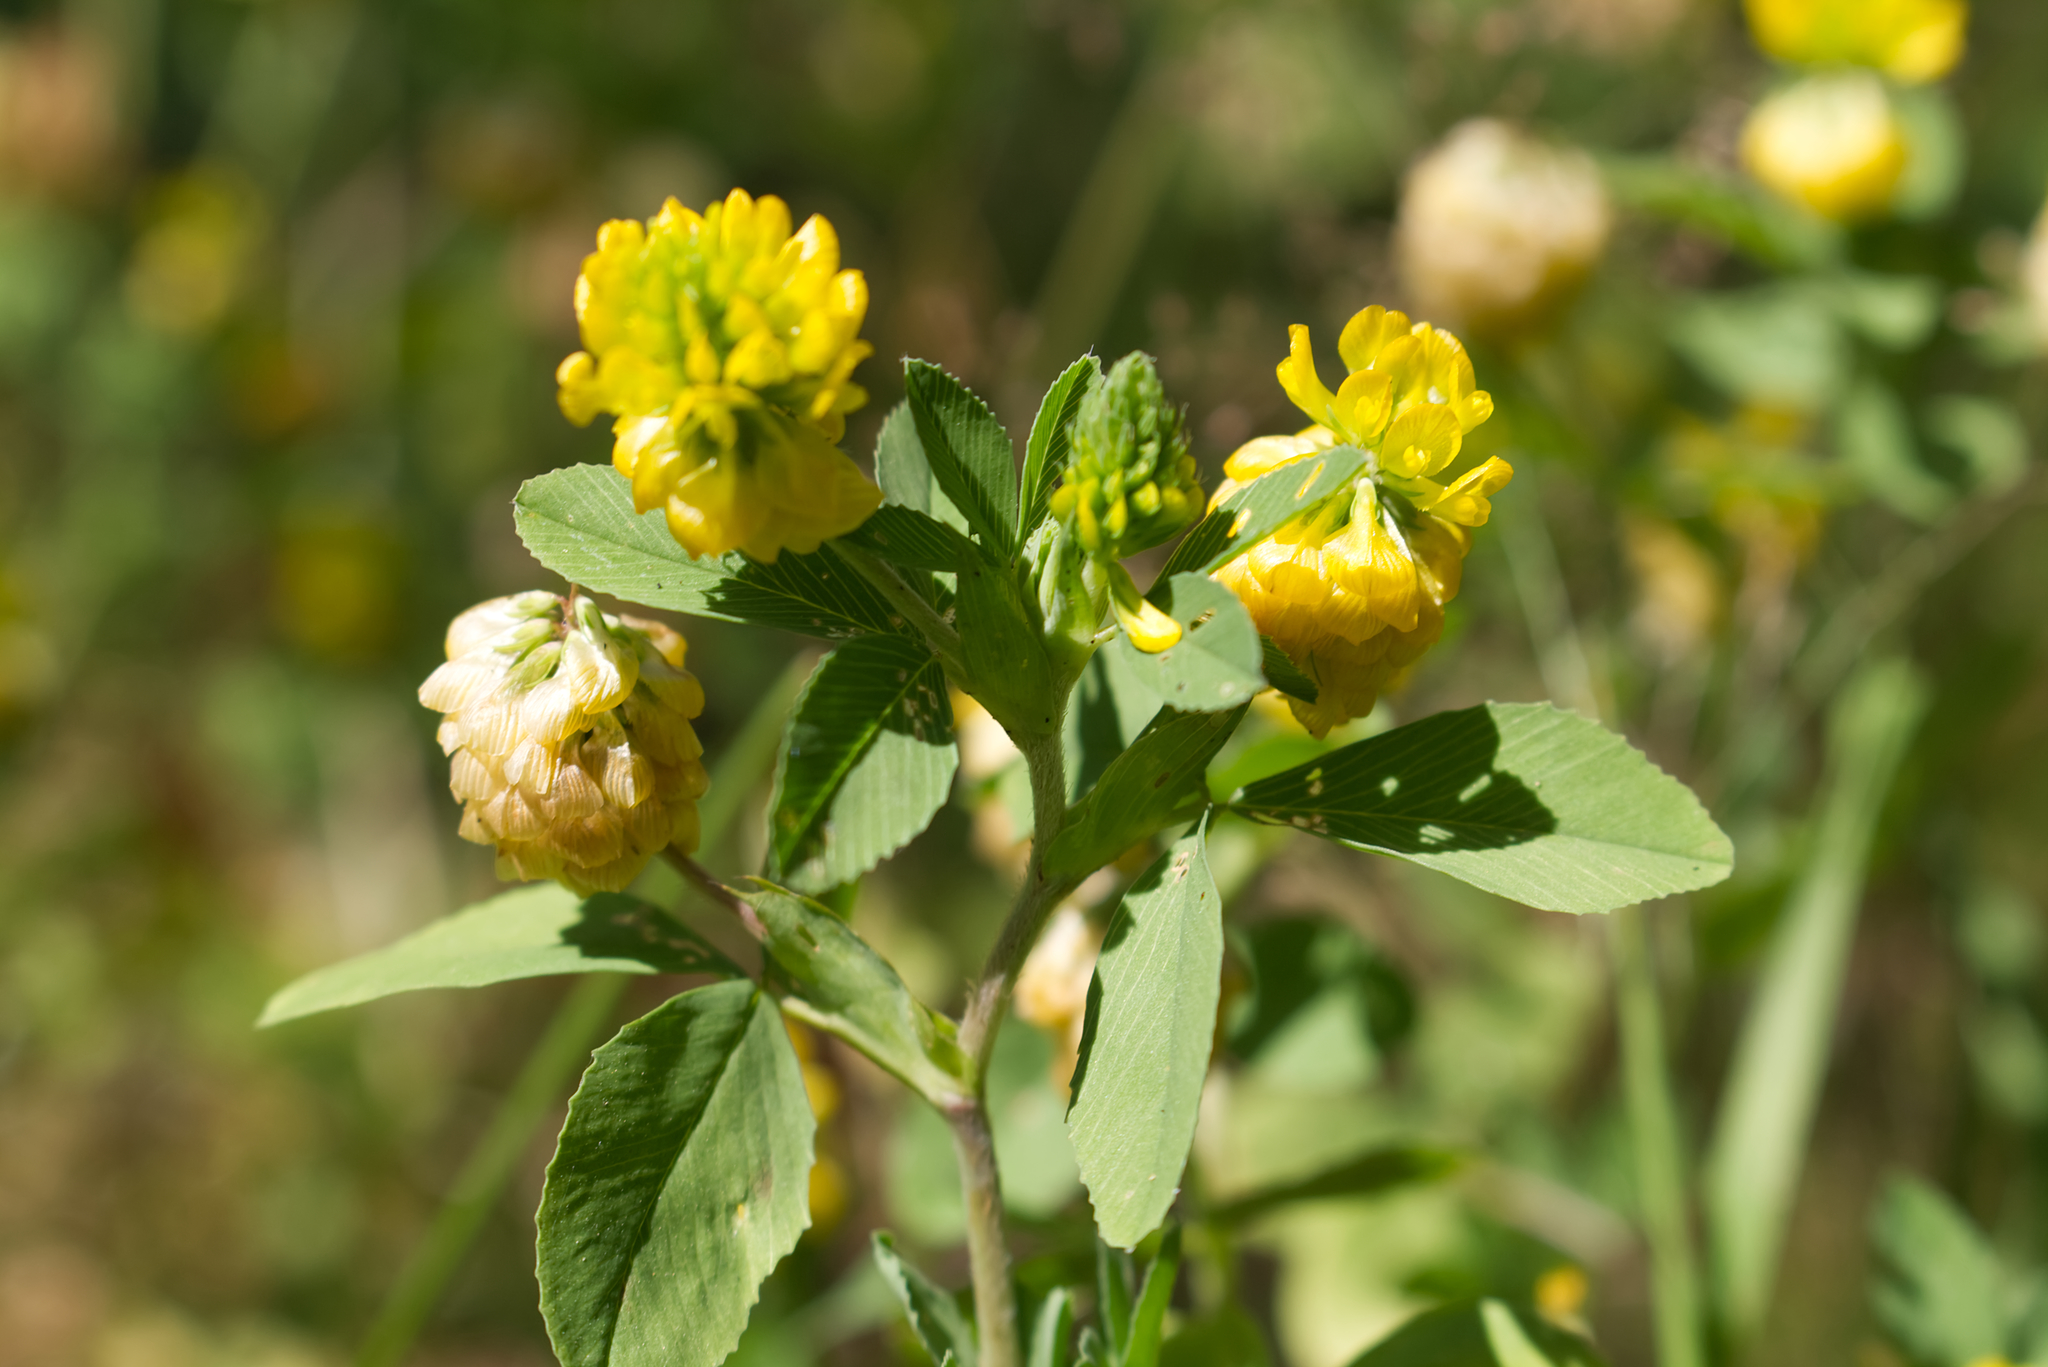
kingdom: Plantae
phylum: Tracheophyta
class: Magnoliopsida
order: Fabales
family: Fabaceae
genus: Trifolium
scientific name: Trifolium aureum
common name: Golden clover
